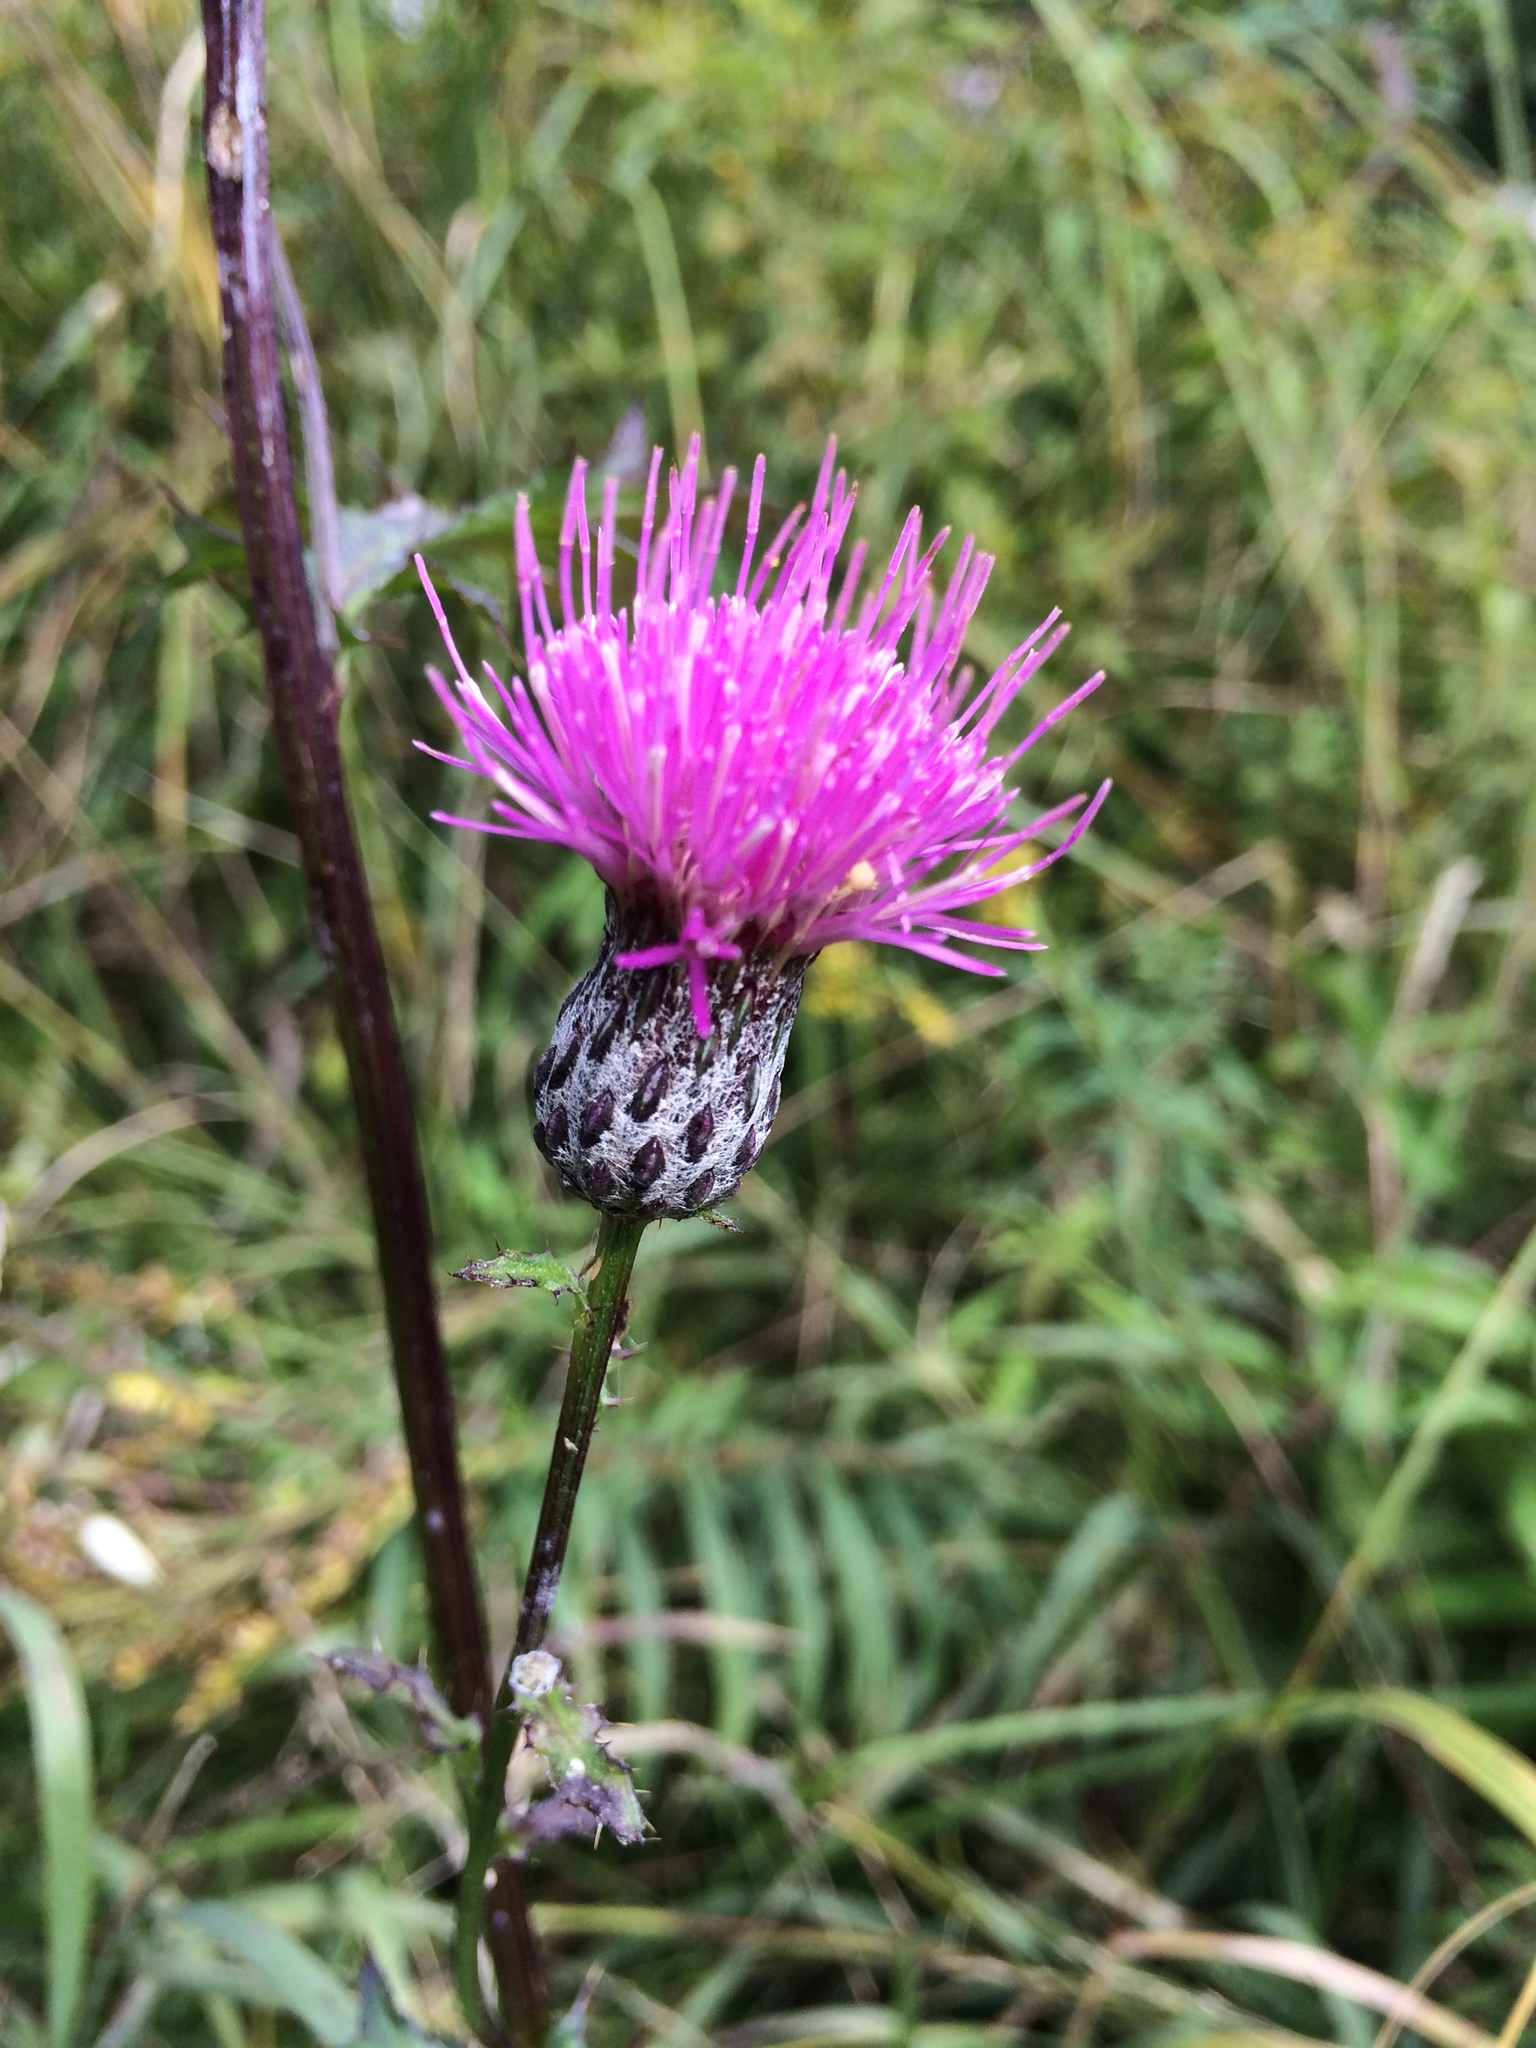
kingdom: Plantae
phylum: Tracheophyta
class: Magnoliopsida
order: Asterales
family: Asteraceae
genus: Cirsium
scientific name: Cirsium muticum
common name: Dunce-nettle
